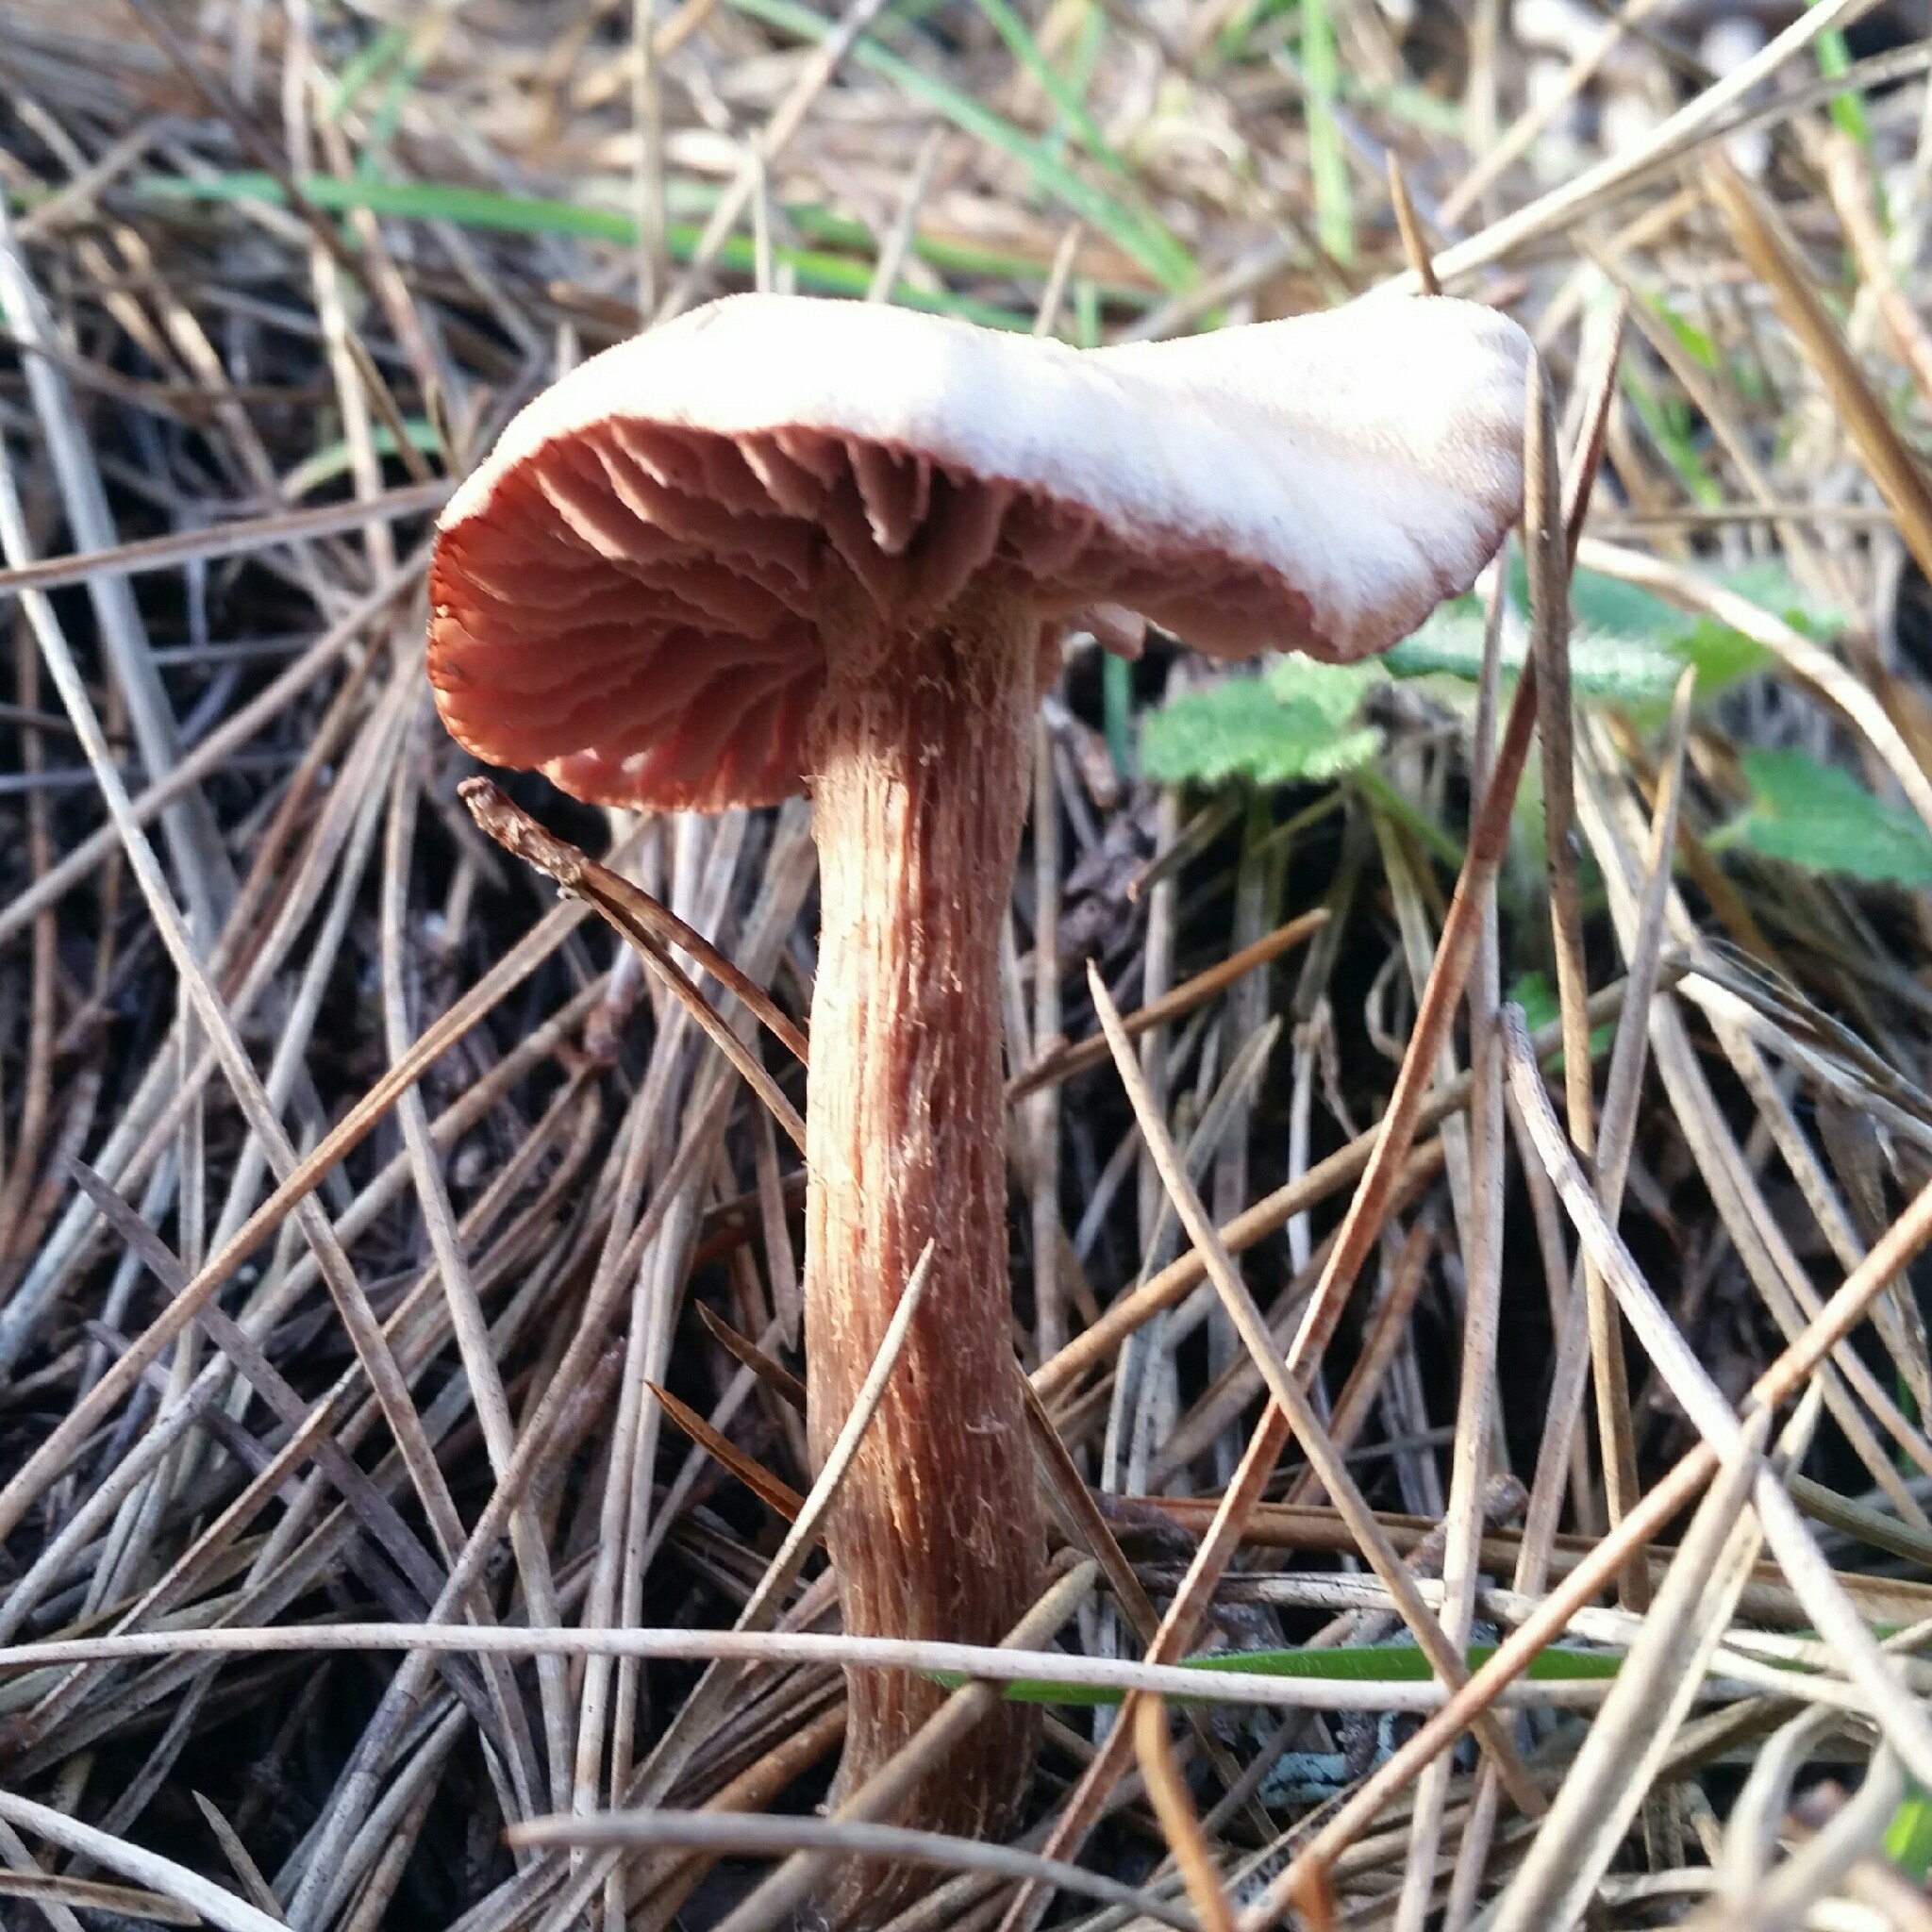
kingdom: Fungi
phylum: Basidiomycota
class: Agaricomycetes
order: Agaricales
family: Hydnangiaceae
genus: Laccaria
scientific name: Laccaria amethysteo-occidentalis
